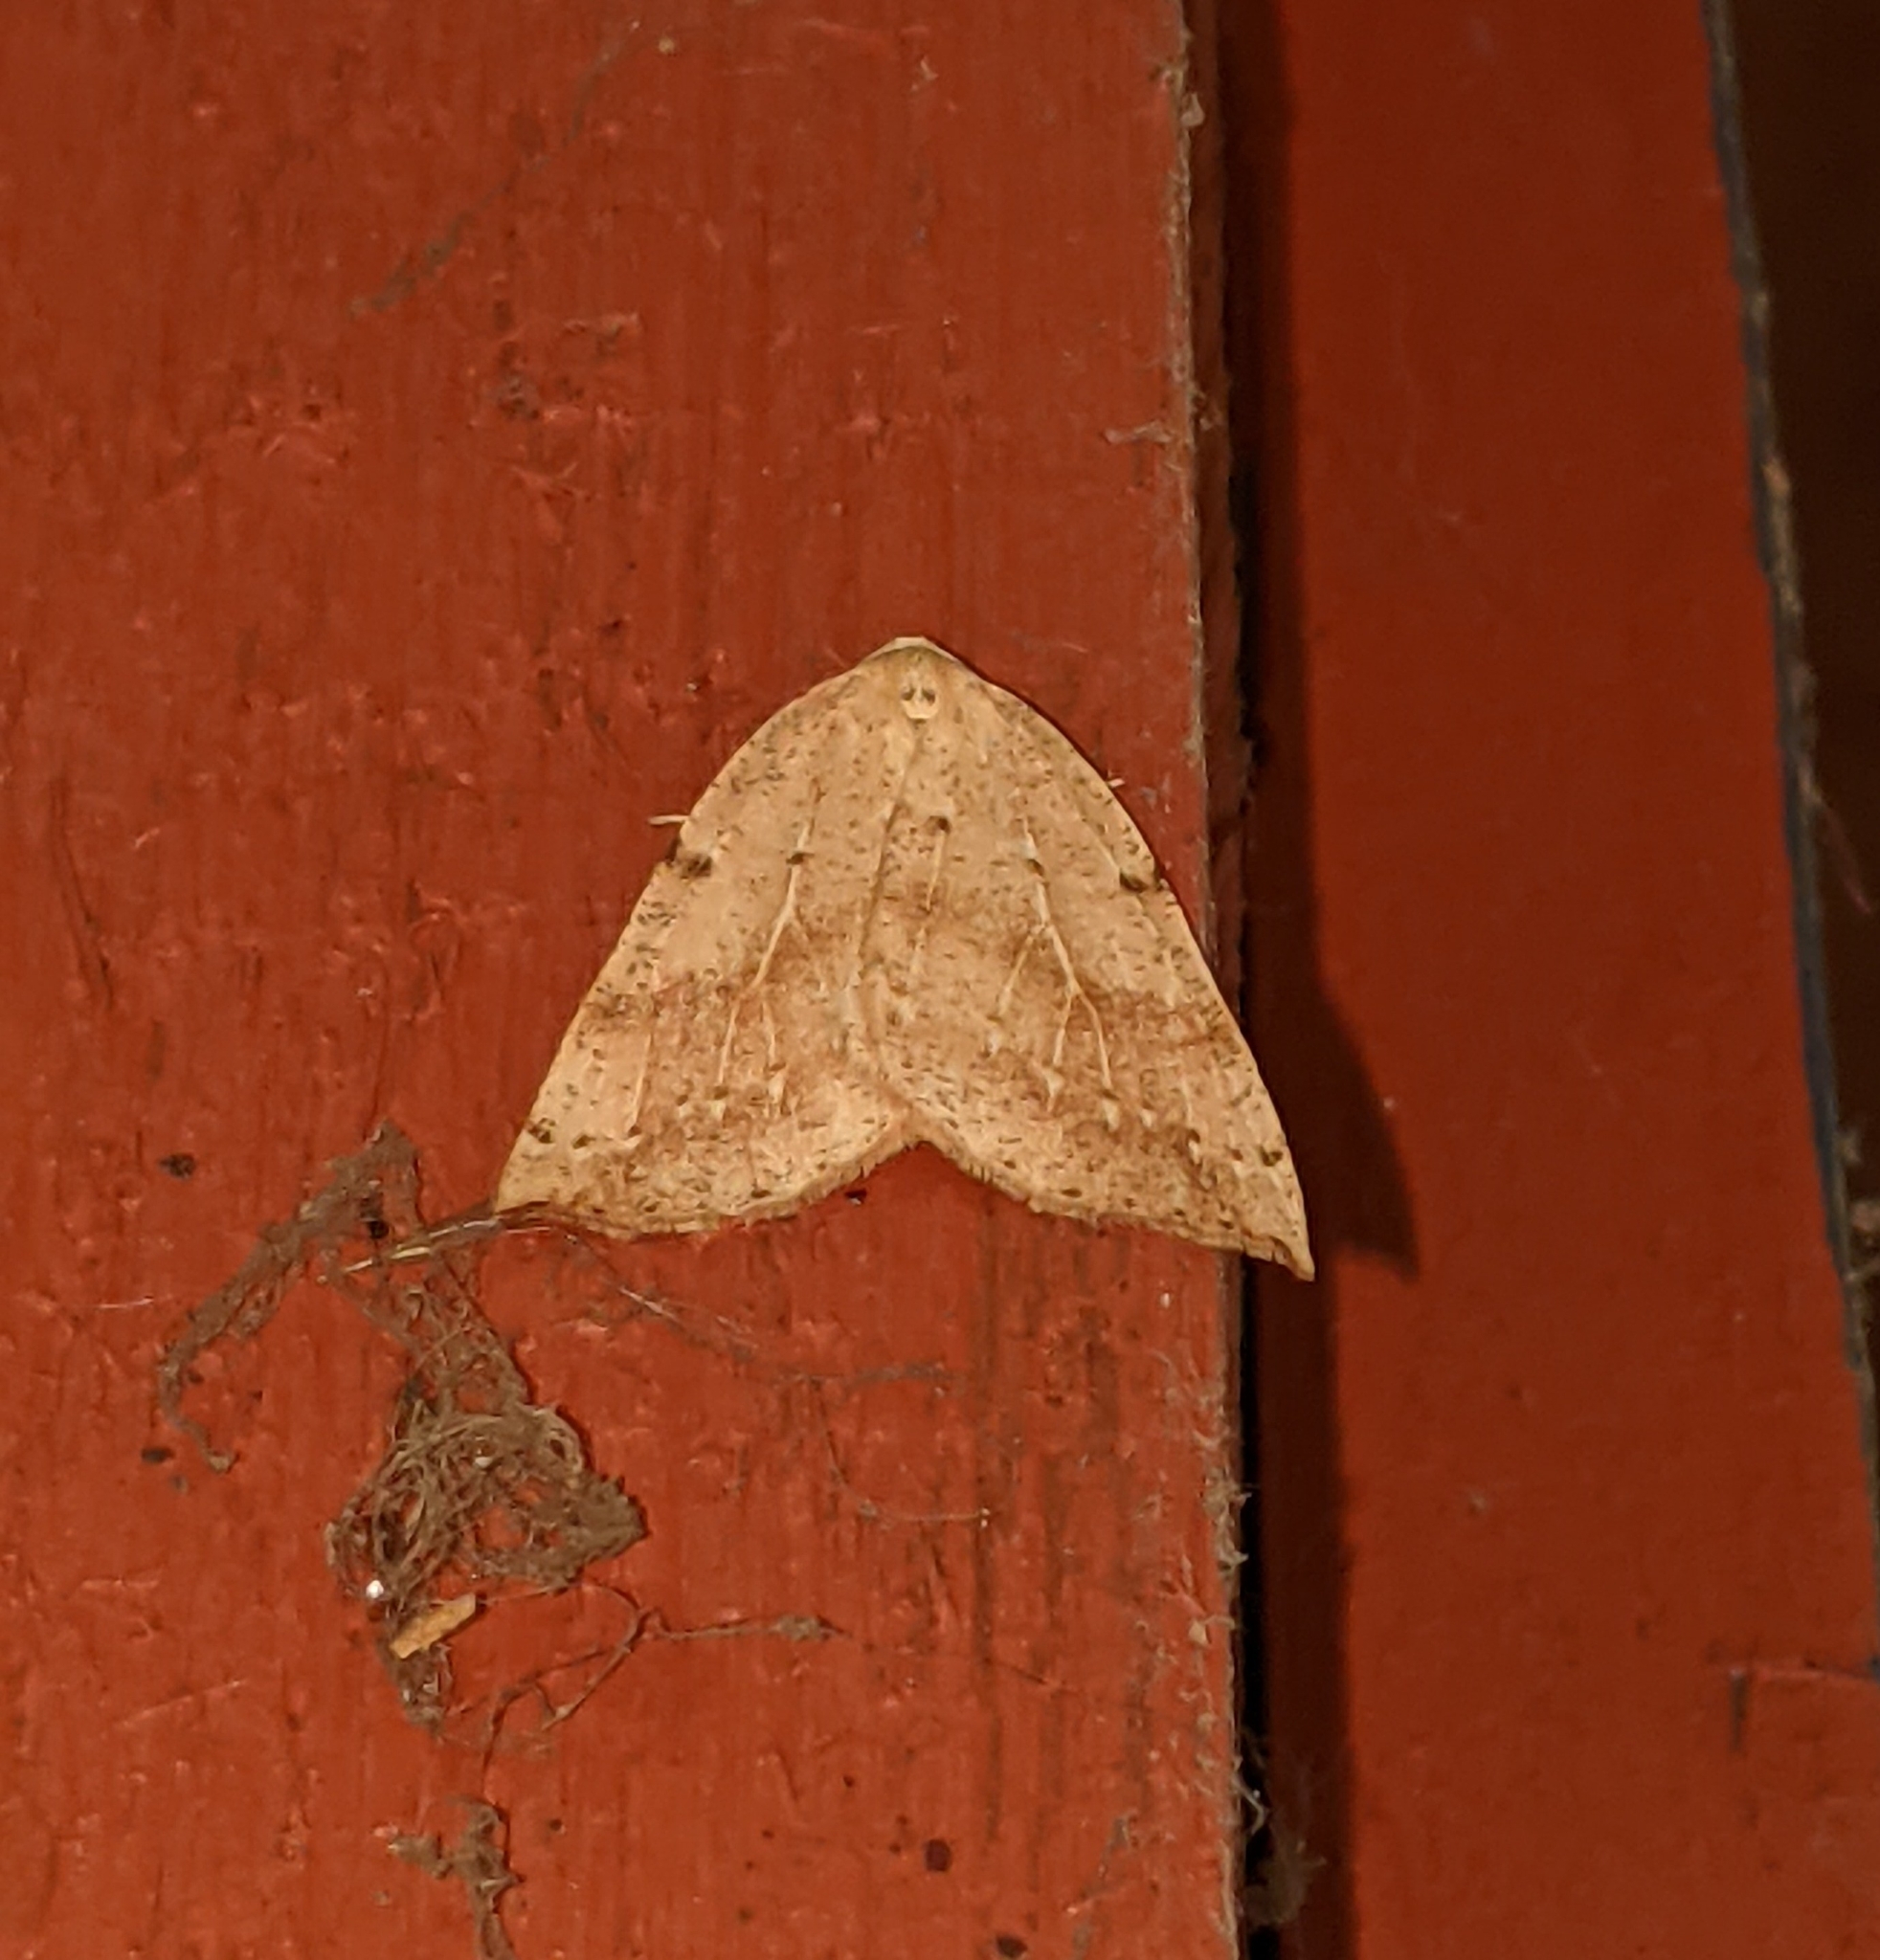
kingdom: Animalia
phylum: Arthropoda
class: Insecta
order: Lepidoptera
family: Geometridae
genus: Thallophaga
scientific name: Thallophaga hyperborea
